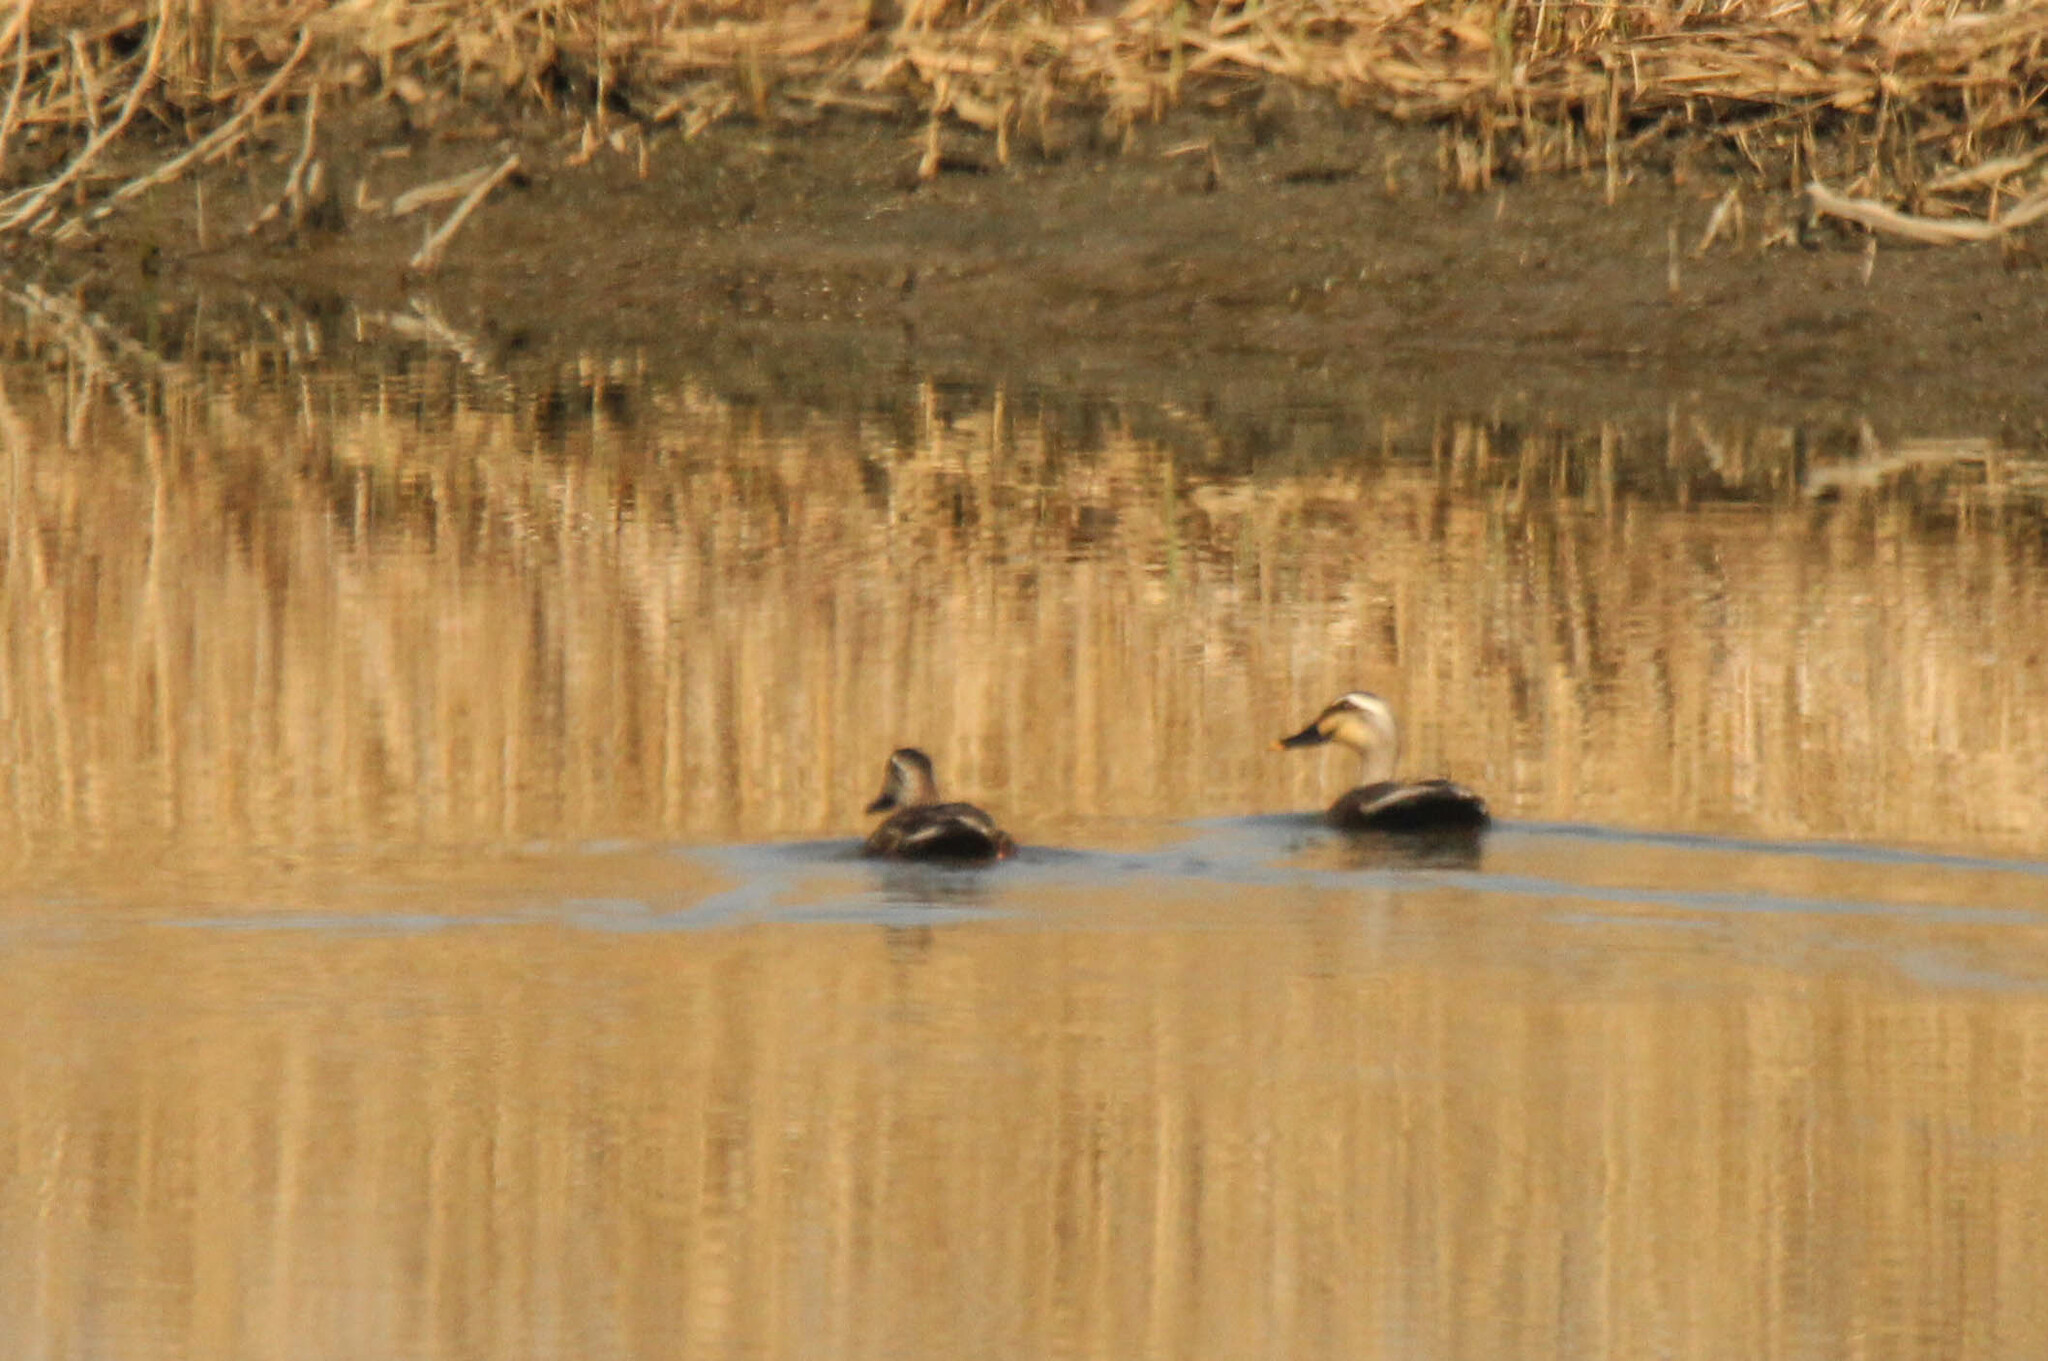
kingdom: Animalia
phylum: Chordata
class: Aves
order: Anseriformes
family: Anatidae
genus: Anas
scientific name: Anas zonorhyncha
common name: Eastern spot-billed duck
